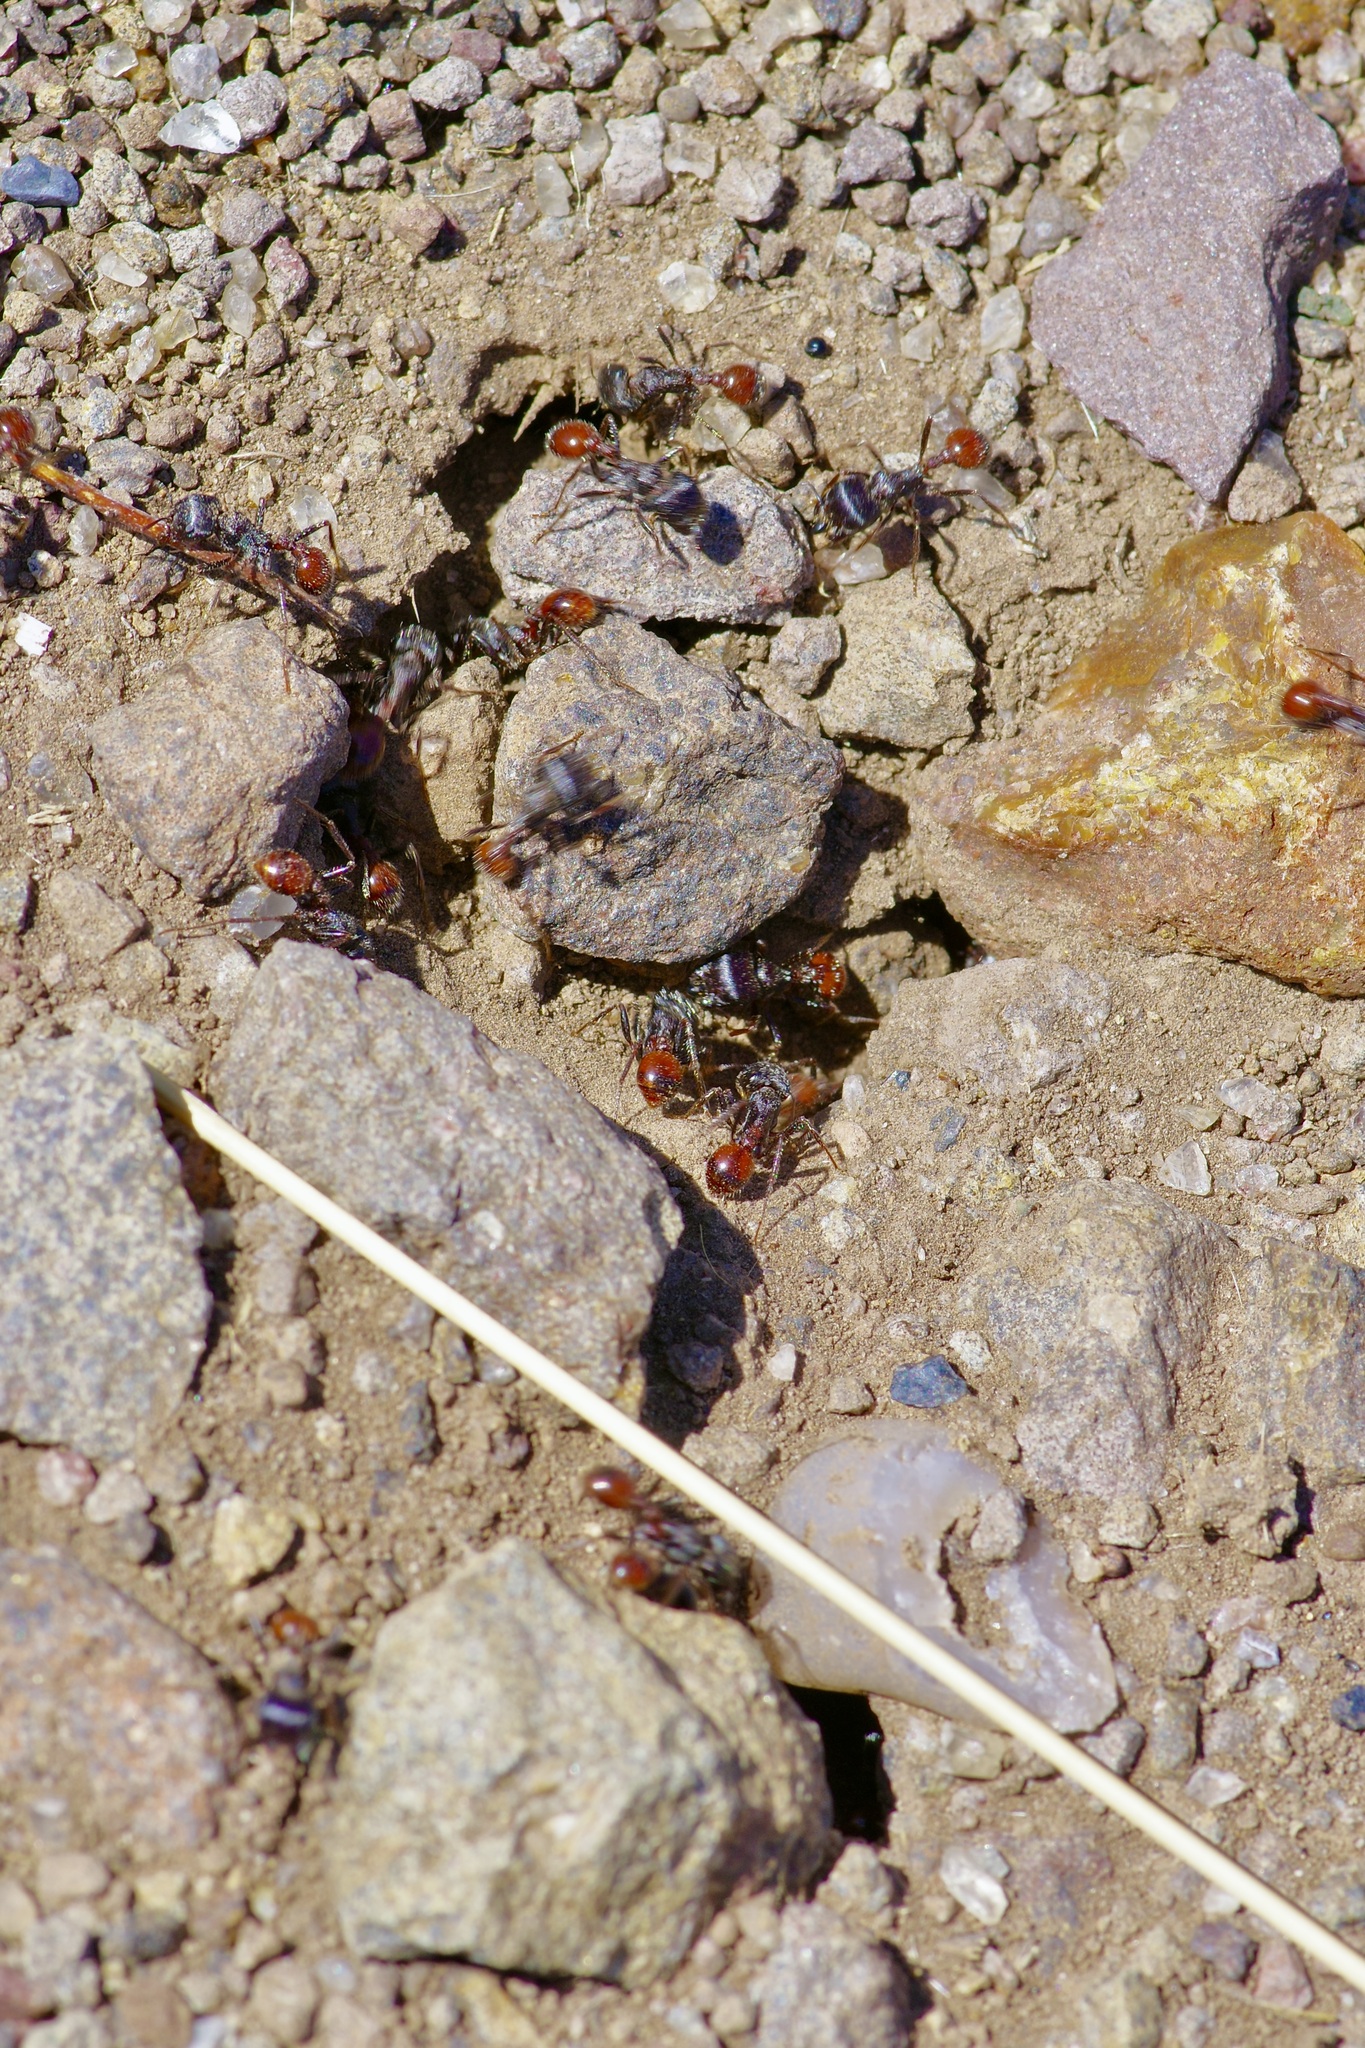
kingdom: Animalia
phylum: Arthropoda
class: Insecta
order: Hymenoptera
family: Formicidae
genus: Pogonomyrmex
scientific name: Pogonomyrmex rugosus
